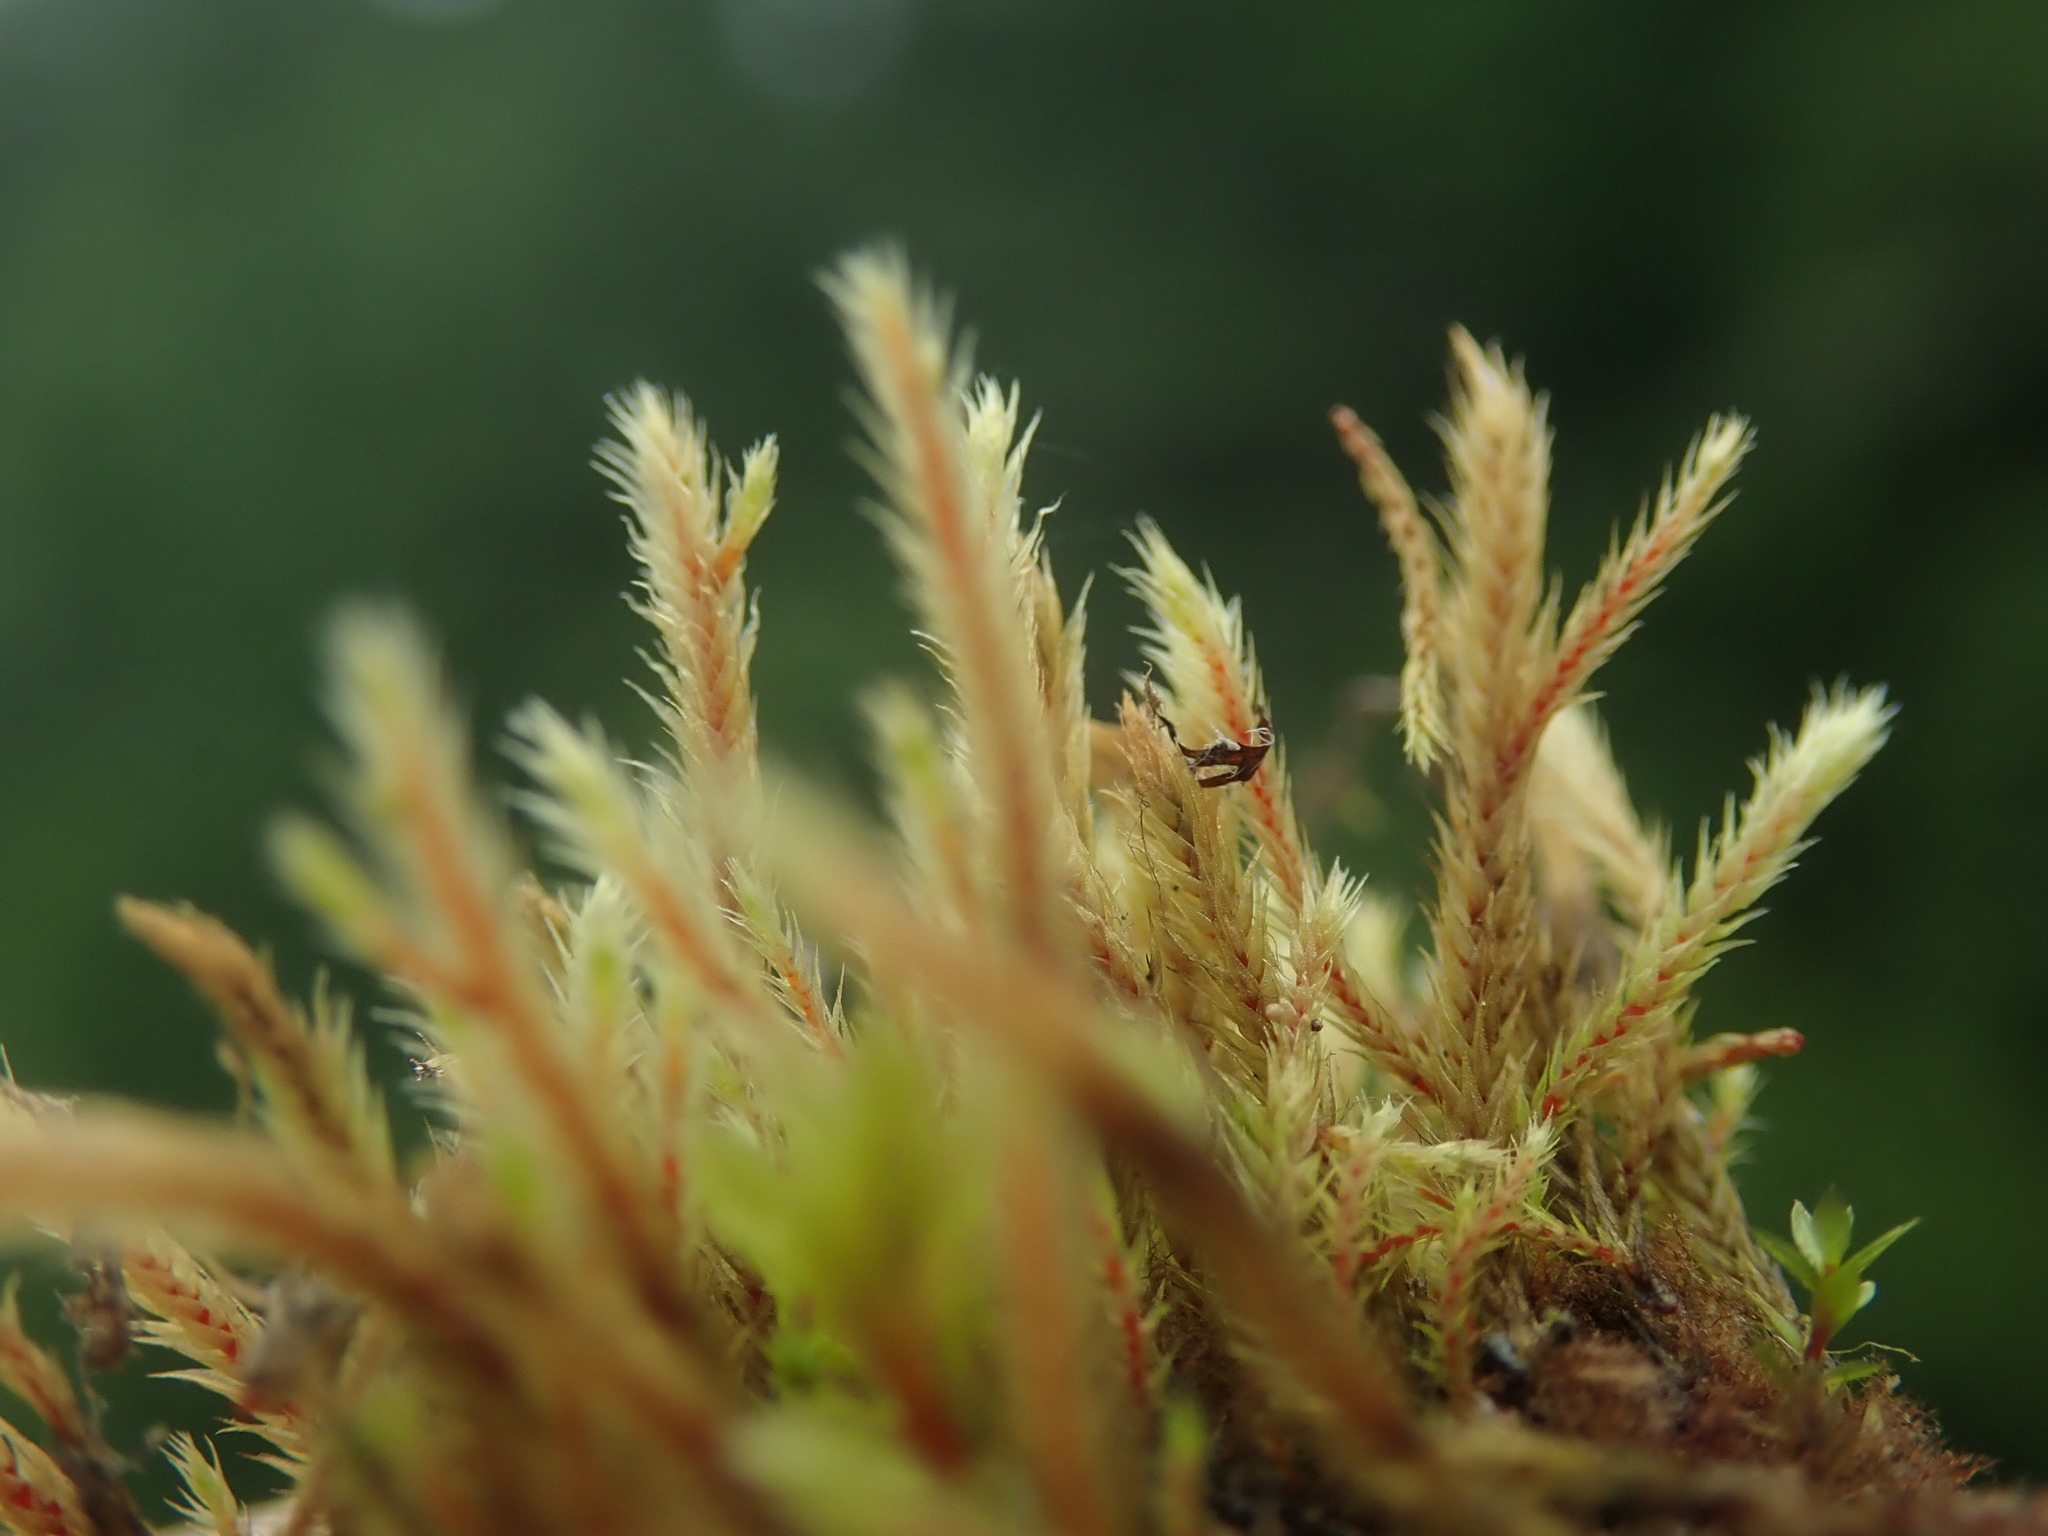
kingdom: Plantae
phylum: Bryophyta
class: Bryopsida
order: Bartramiales
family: Bartramiaceae
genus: Philonotis
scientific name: Philonotis fontana
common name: Fountain apple-moss
